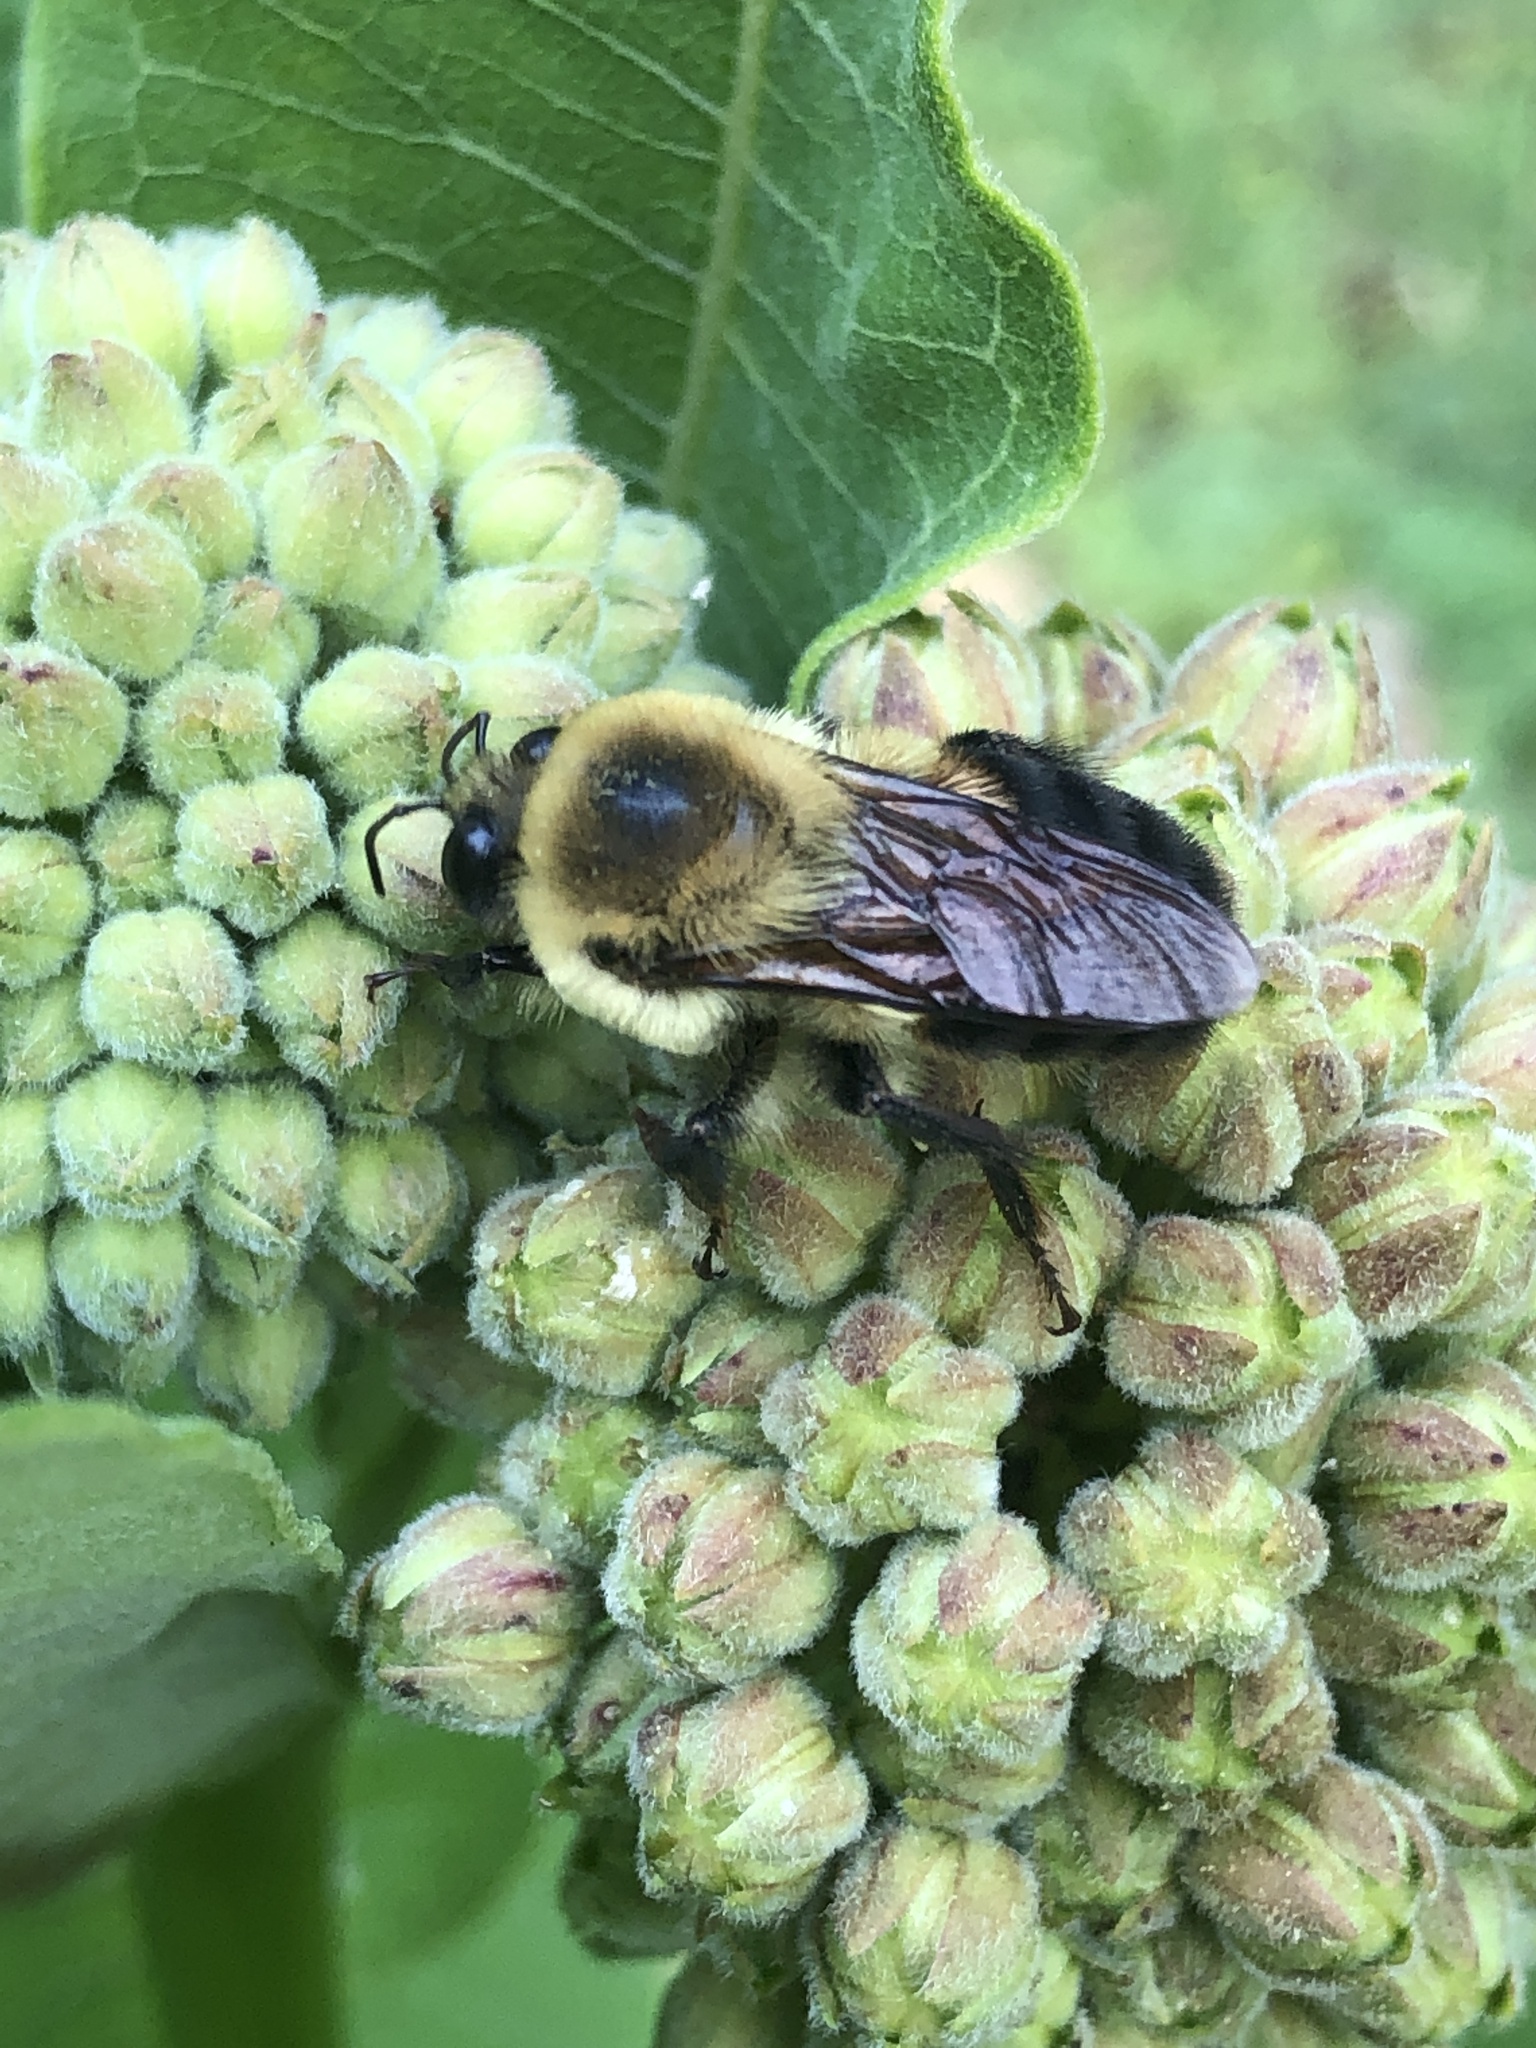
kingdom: Animalia
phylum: Arthropoda
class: Insecta
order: Hymenoptera
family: Apidae
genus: Bombus
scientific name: Bombus griseocollis
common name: Brown-belted bumble bee
